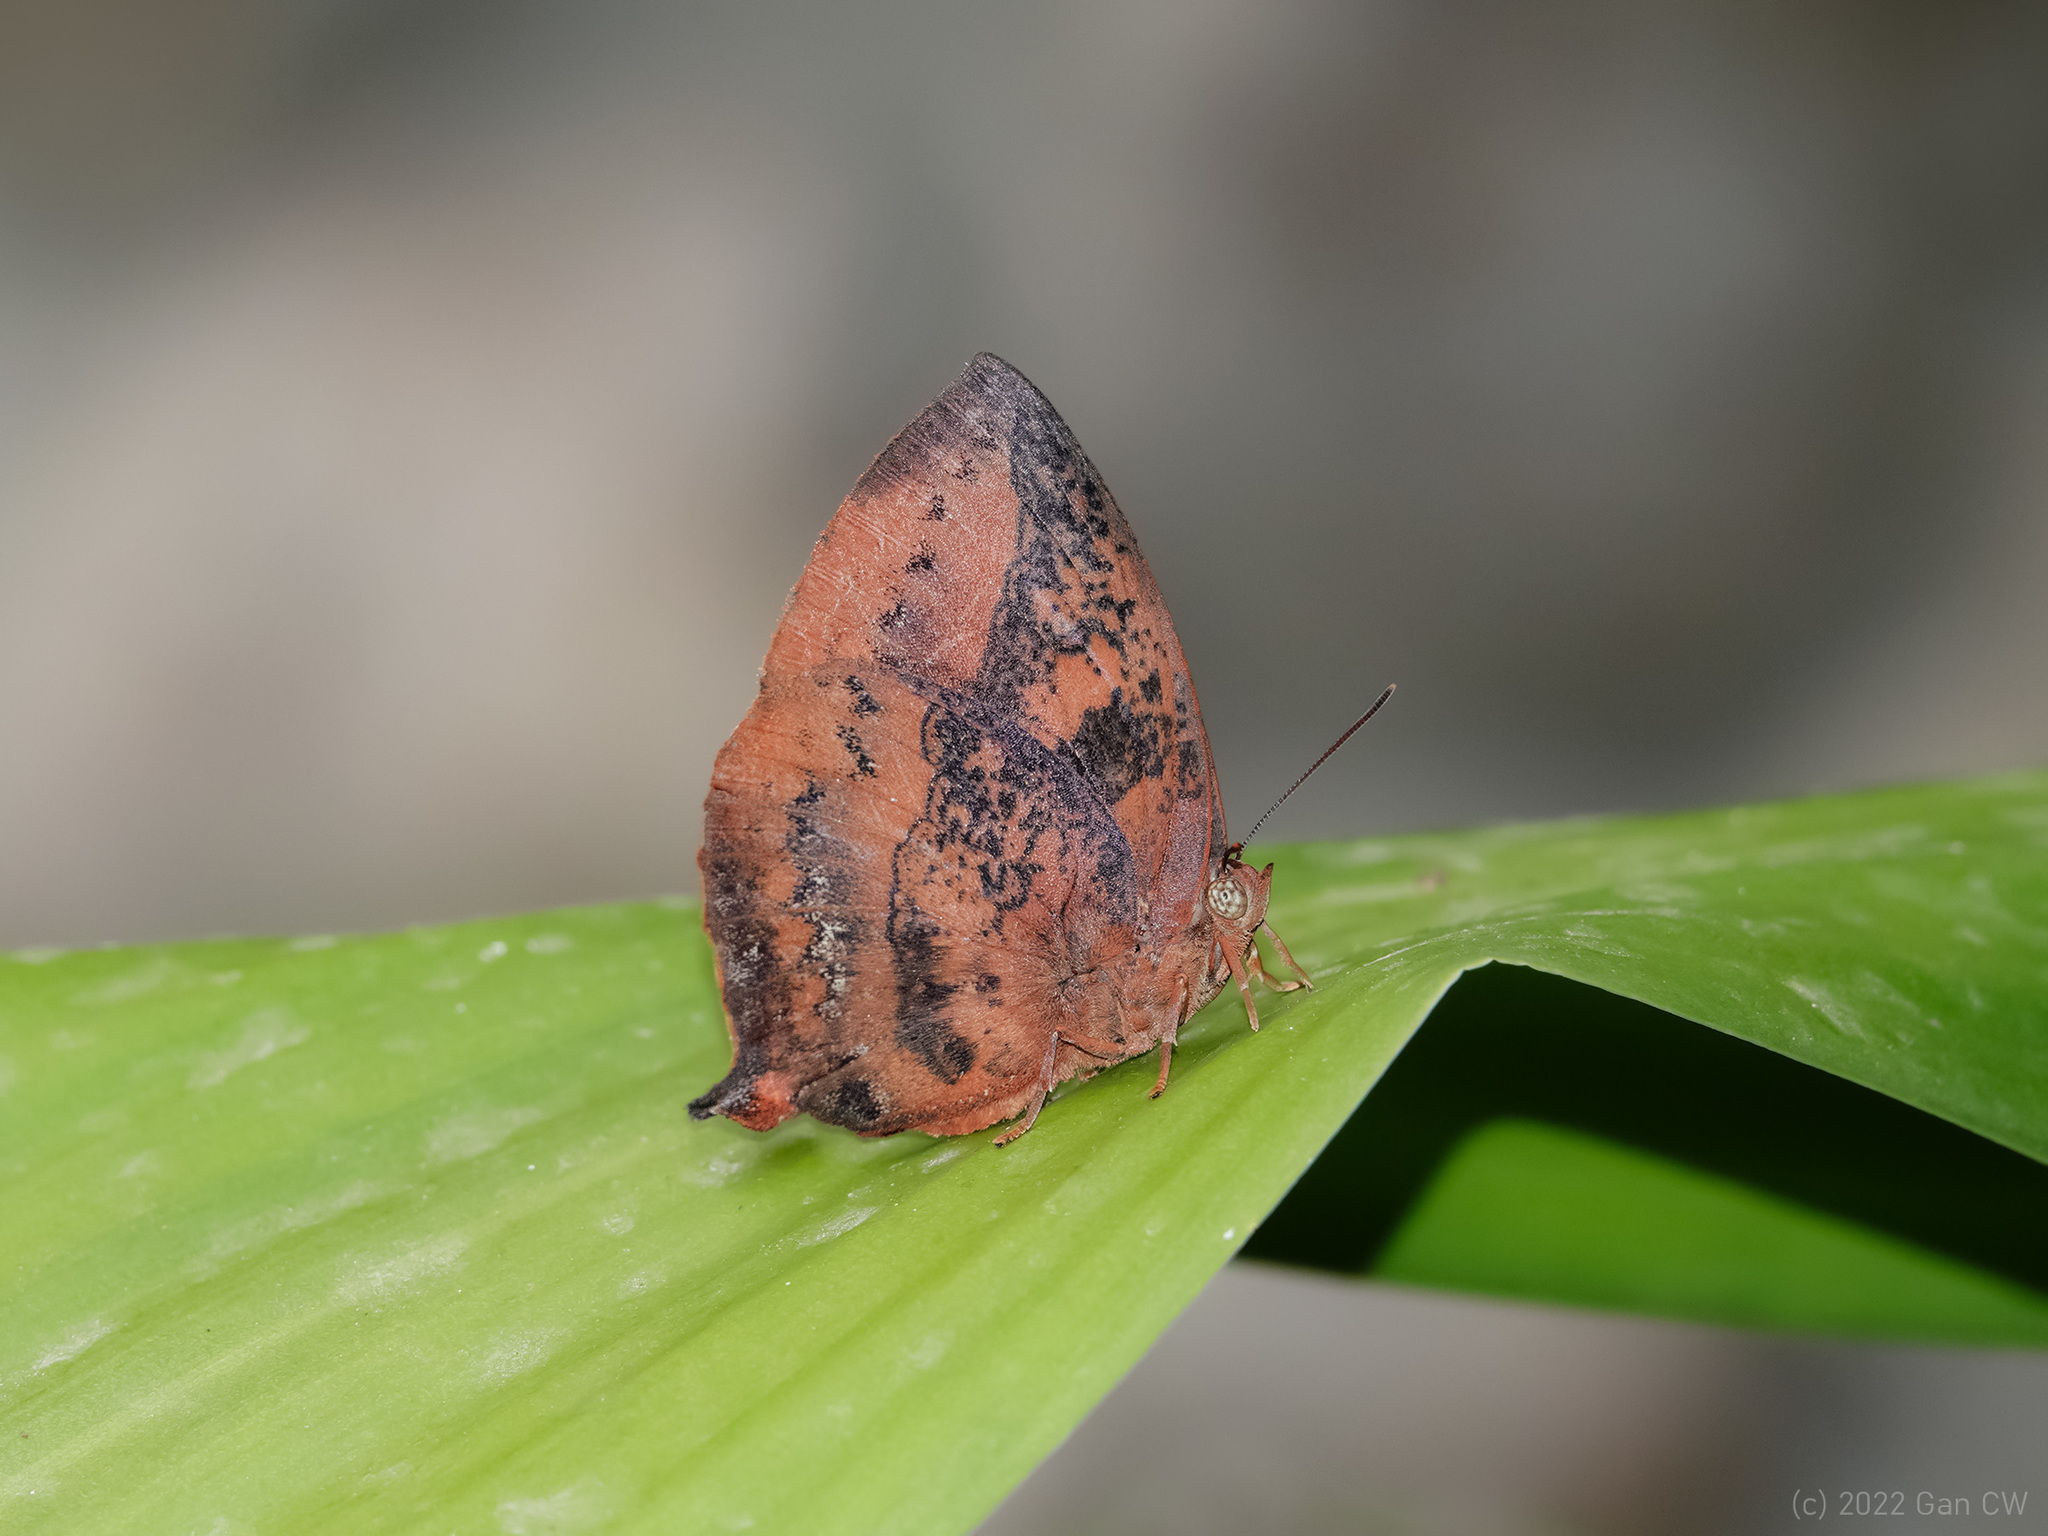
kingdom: Animalia
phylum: Arthropoda
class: Insecta
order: Lepidoptera
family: Lycaenidae
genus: Amblypodia
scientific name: Amblypodia anita
